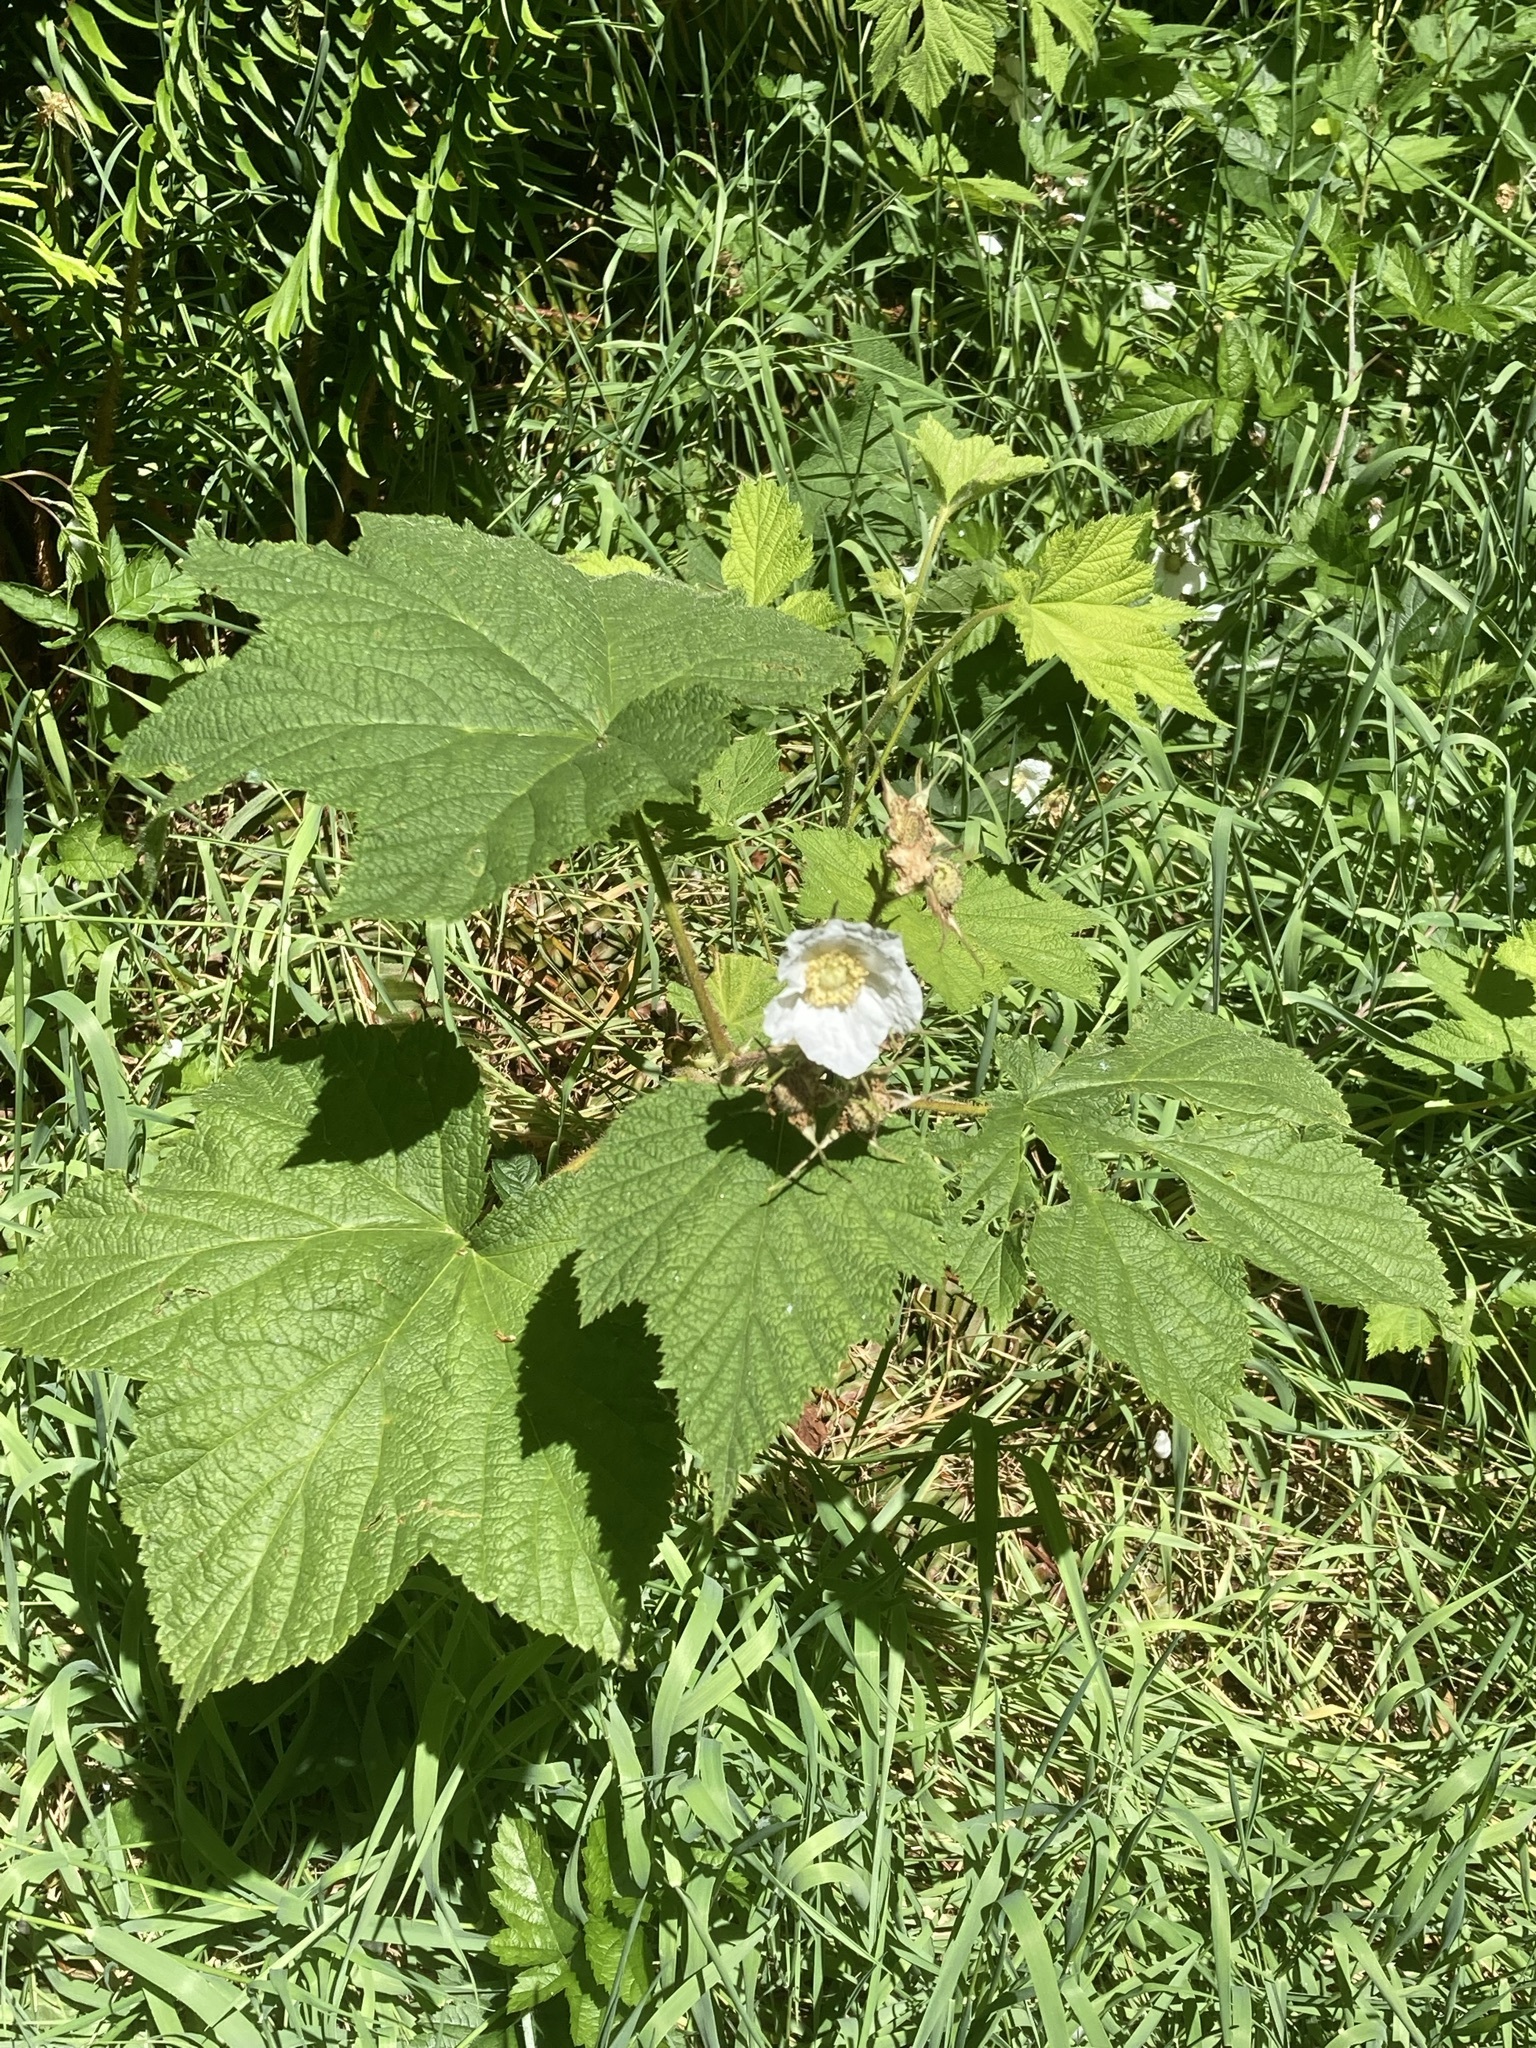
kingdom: Plantae
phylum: Tracheophyta
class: Magnoliopsida
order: Rosales
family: Rosaceae
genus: Rubus
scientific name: Rubus parviflorus
